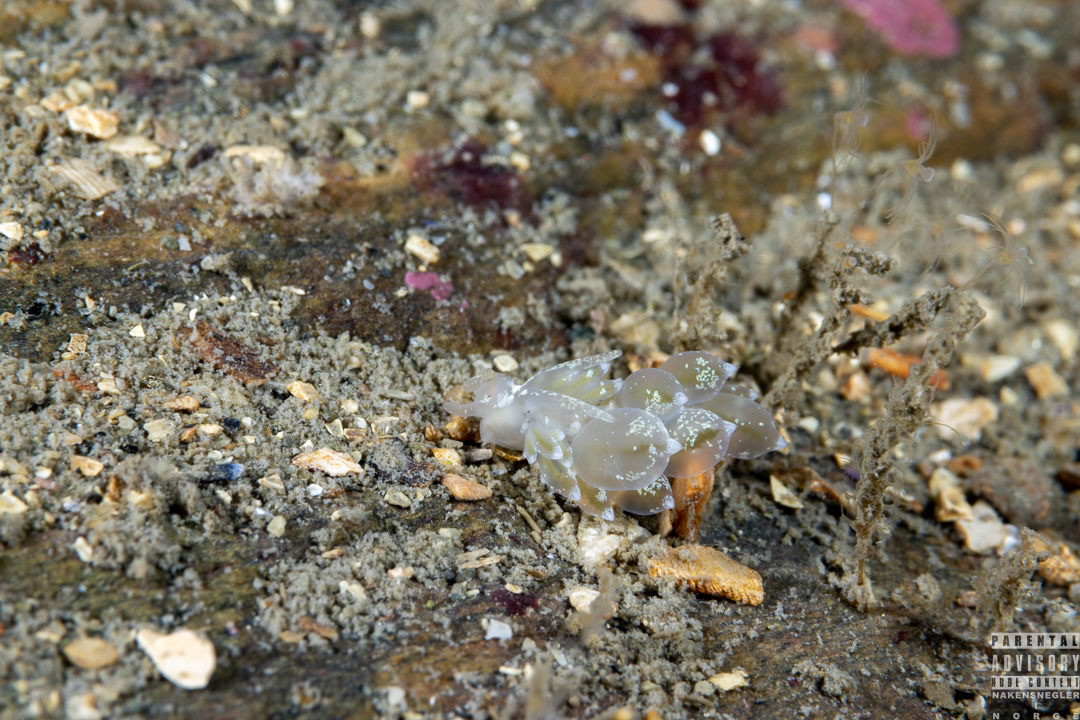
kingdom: Animalia
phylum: Mollusca
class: Gastropoda
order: Nudibranchia
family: Eubranchidae
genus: Amphorina
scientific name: Amphorina pallida
